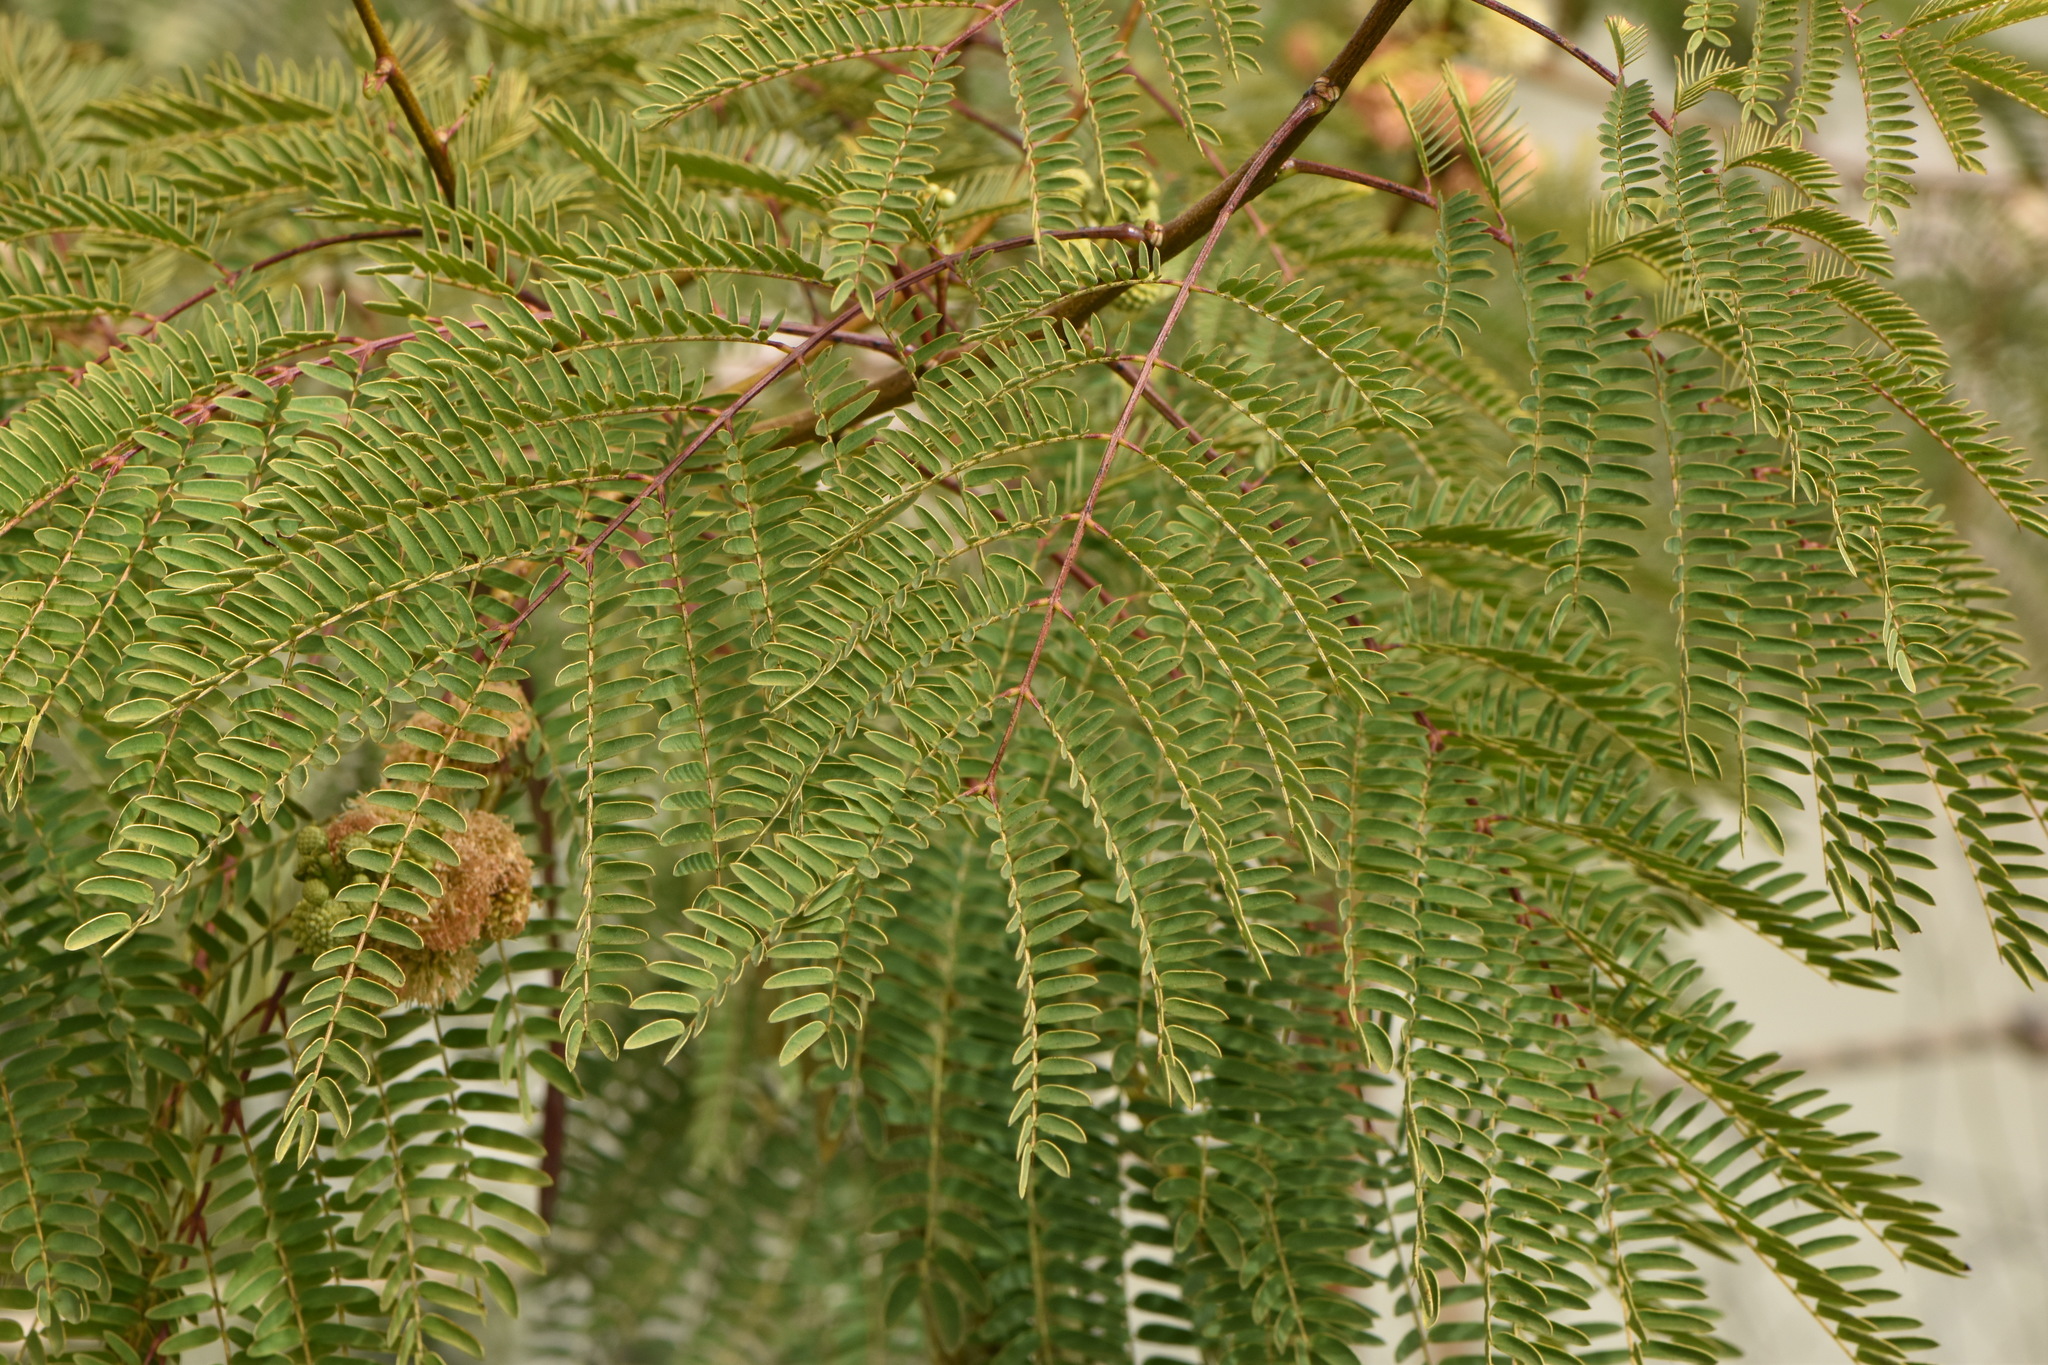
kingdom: Plantae
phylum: Tracheophyta
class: Magnoliopsida
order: Fabales
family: Fabaceae
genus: Leucaena
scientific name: Leucaena leucocephala
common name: White leadtree
